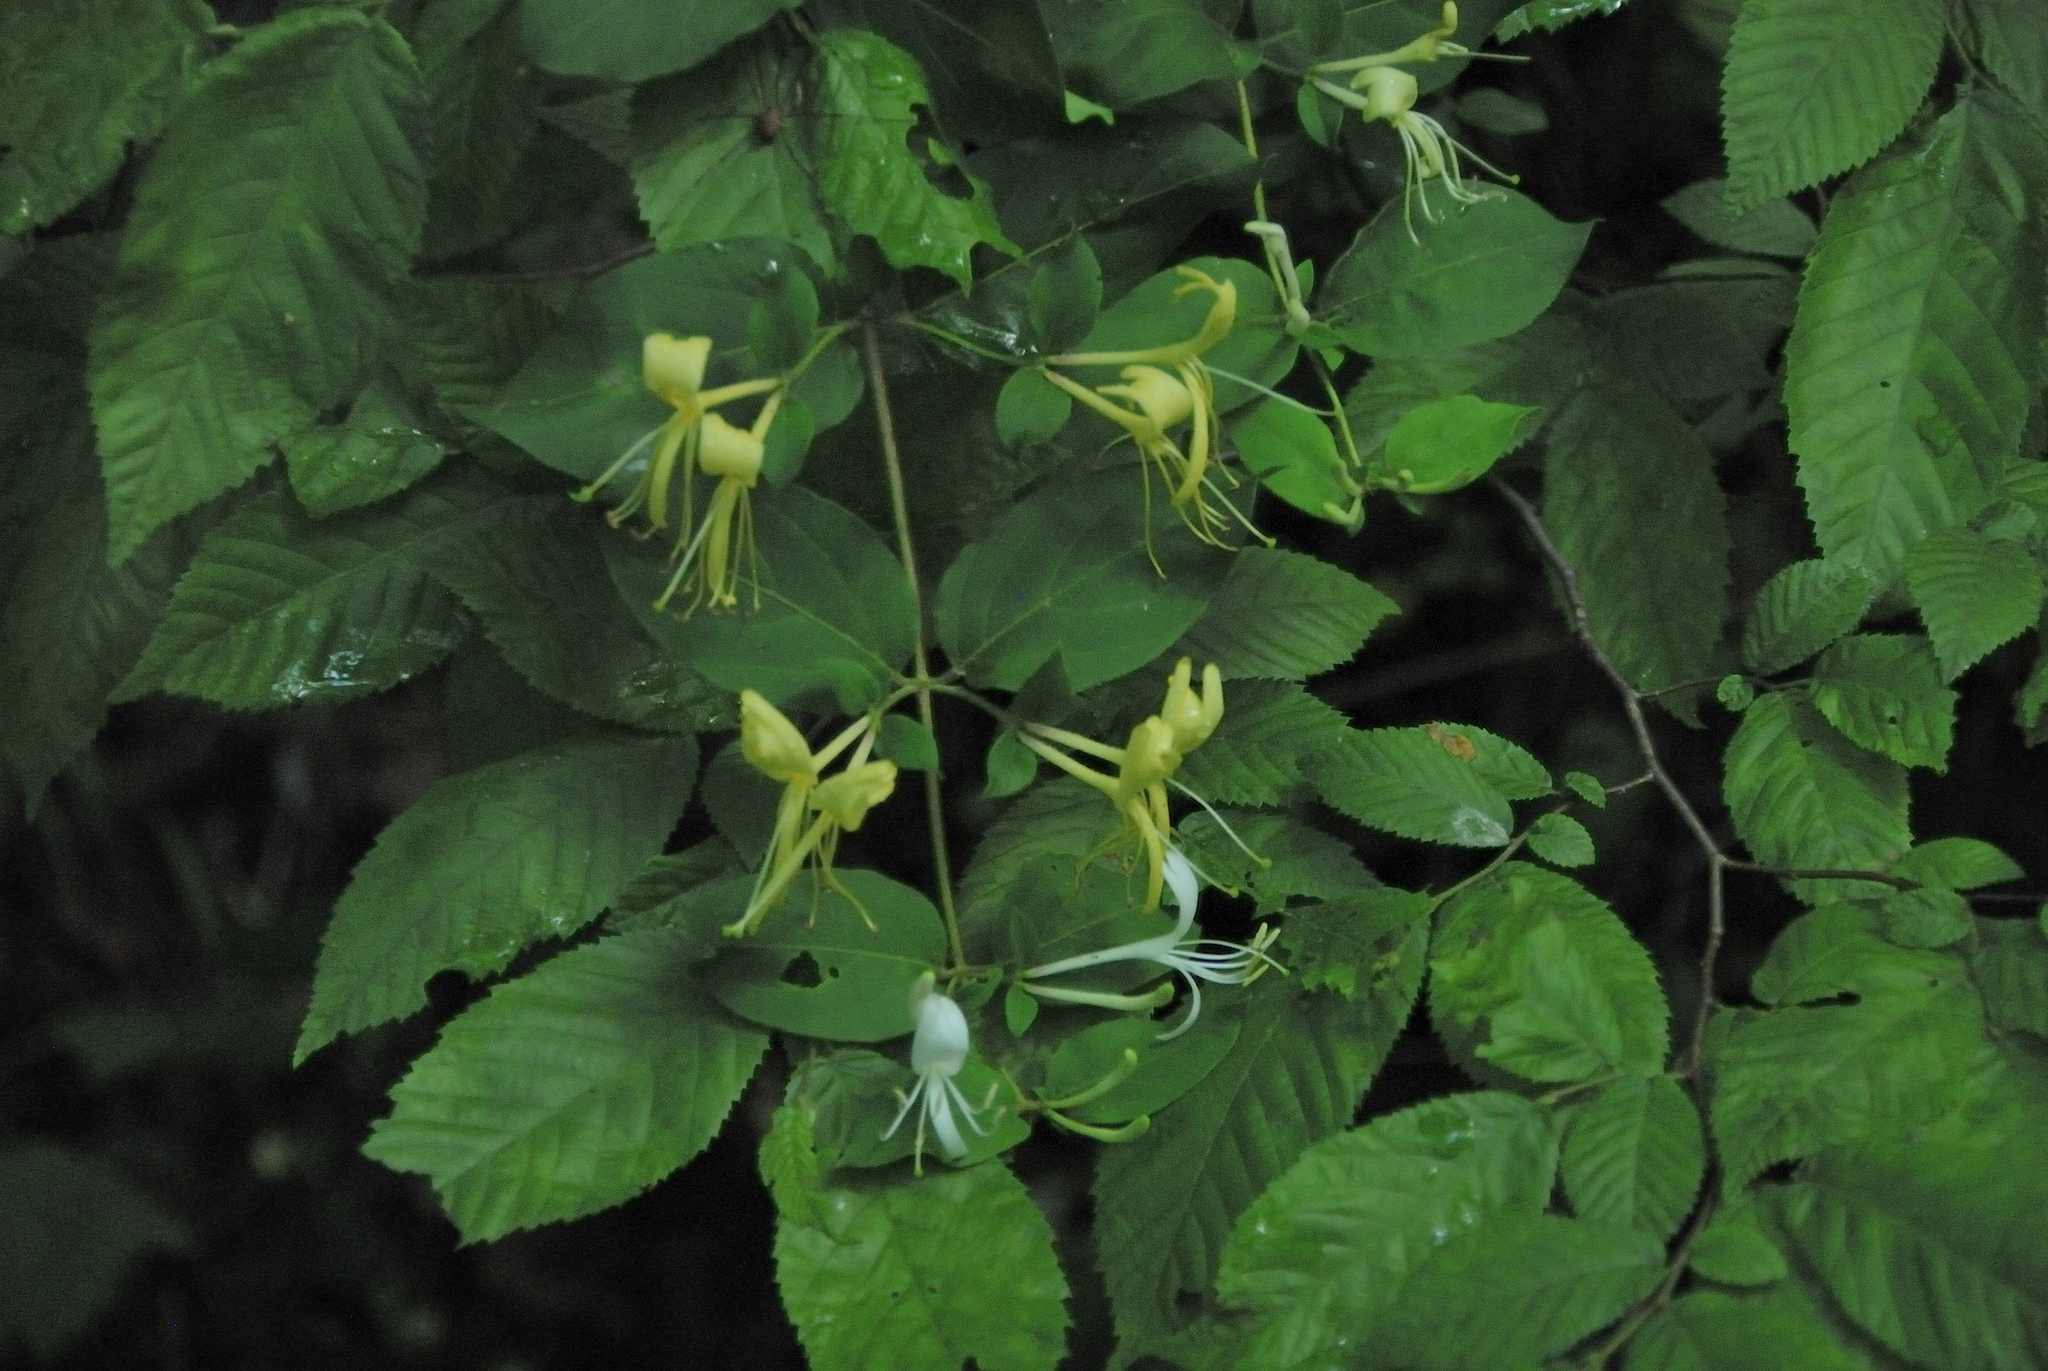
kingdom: Plantae
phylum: Tracheophyta
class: Magnoliopsida
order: Dipsacales
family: Caprifoliaceae
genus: Lonicera
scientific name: Lonicera japonica
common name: Japanese honeysuckle
